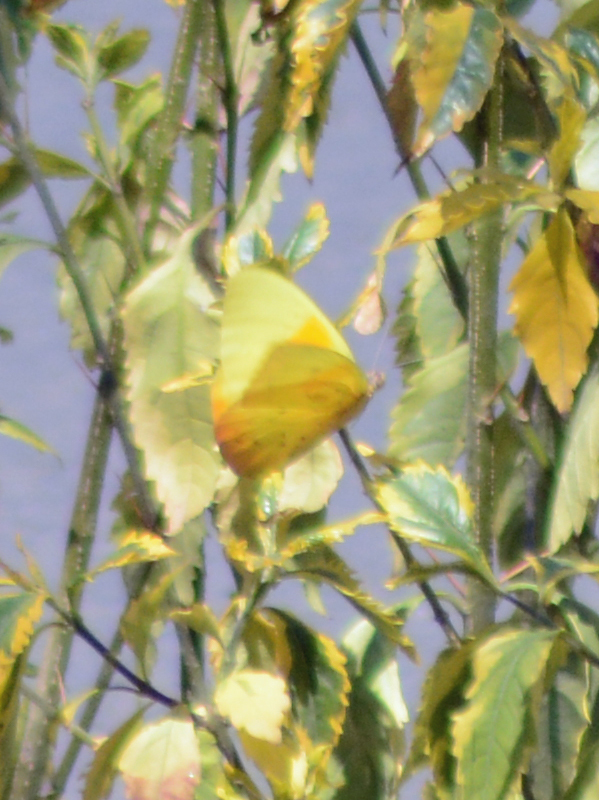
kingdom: Animalia
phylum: Arthropoda
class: Insecta
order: Lepidoptera
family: Pieridae
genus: Phoebis
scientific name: Phoebis philea
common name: Orange-barred giant sulphur
